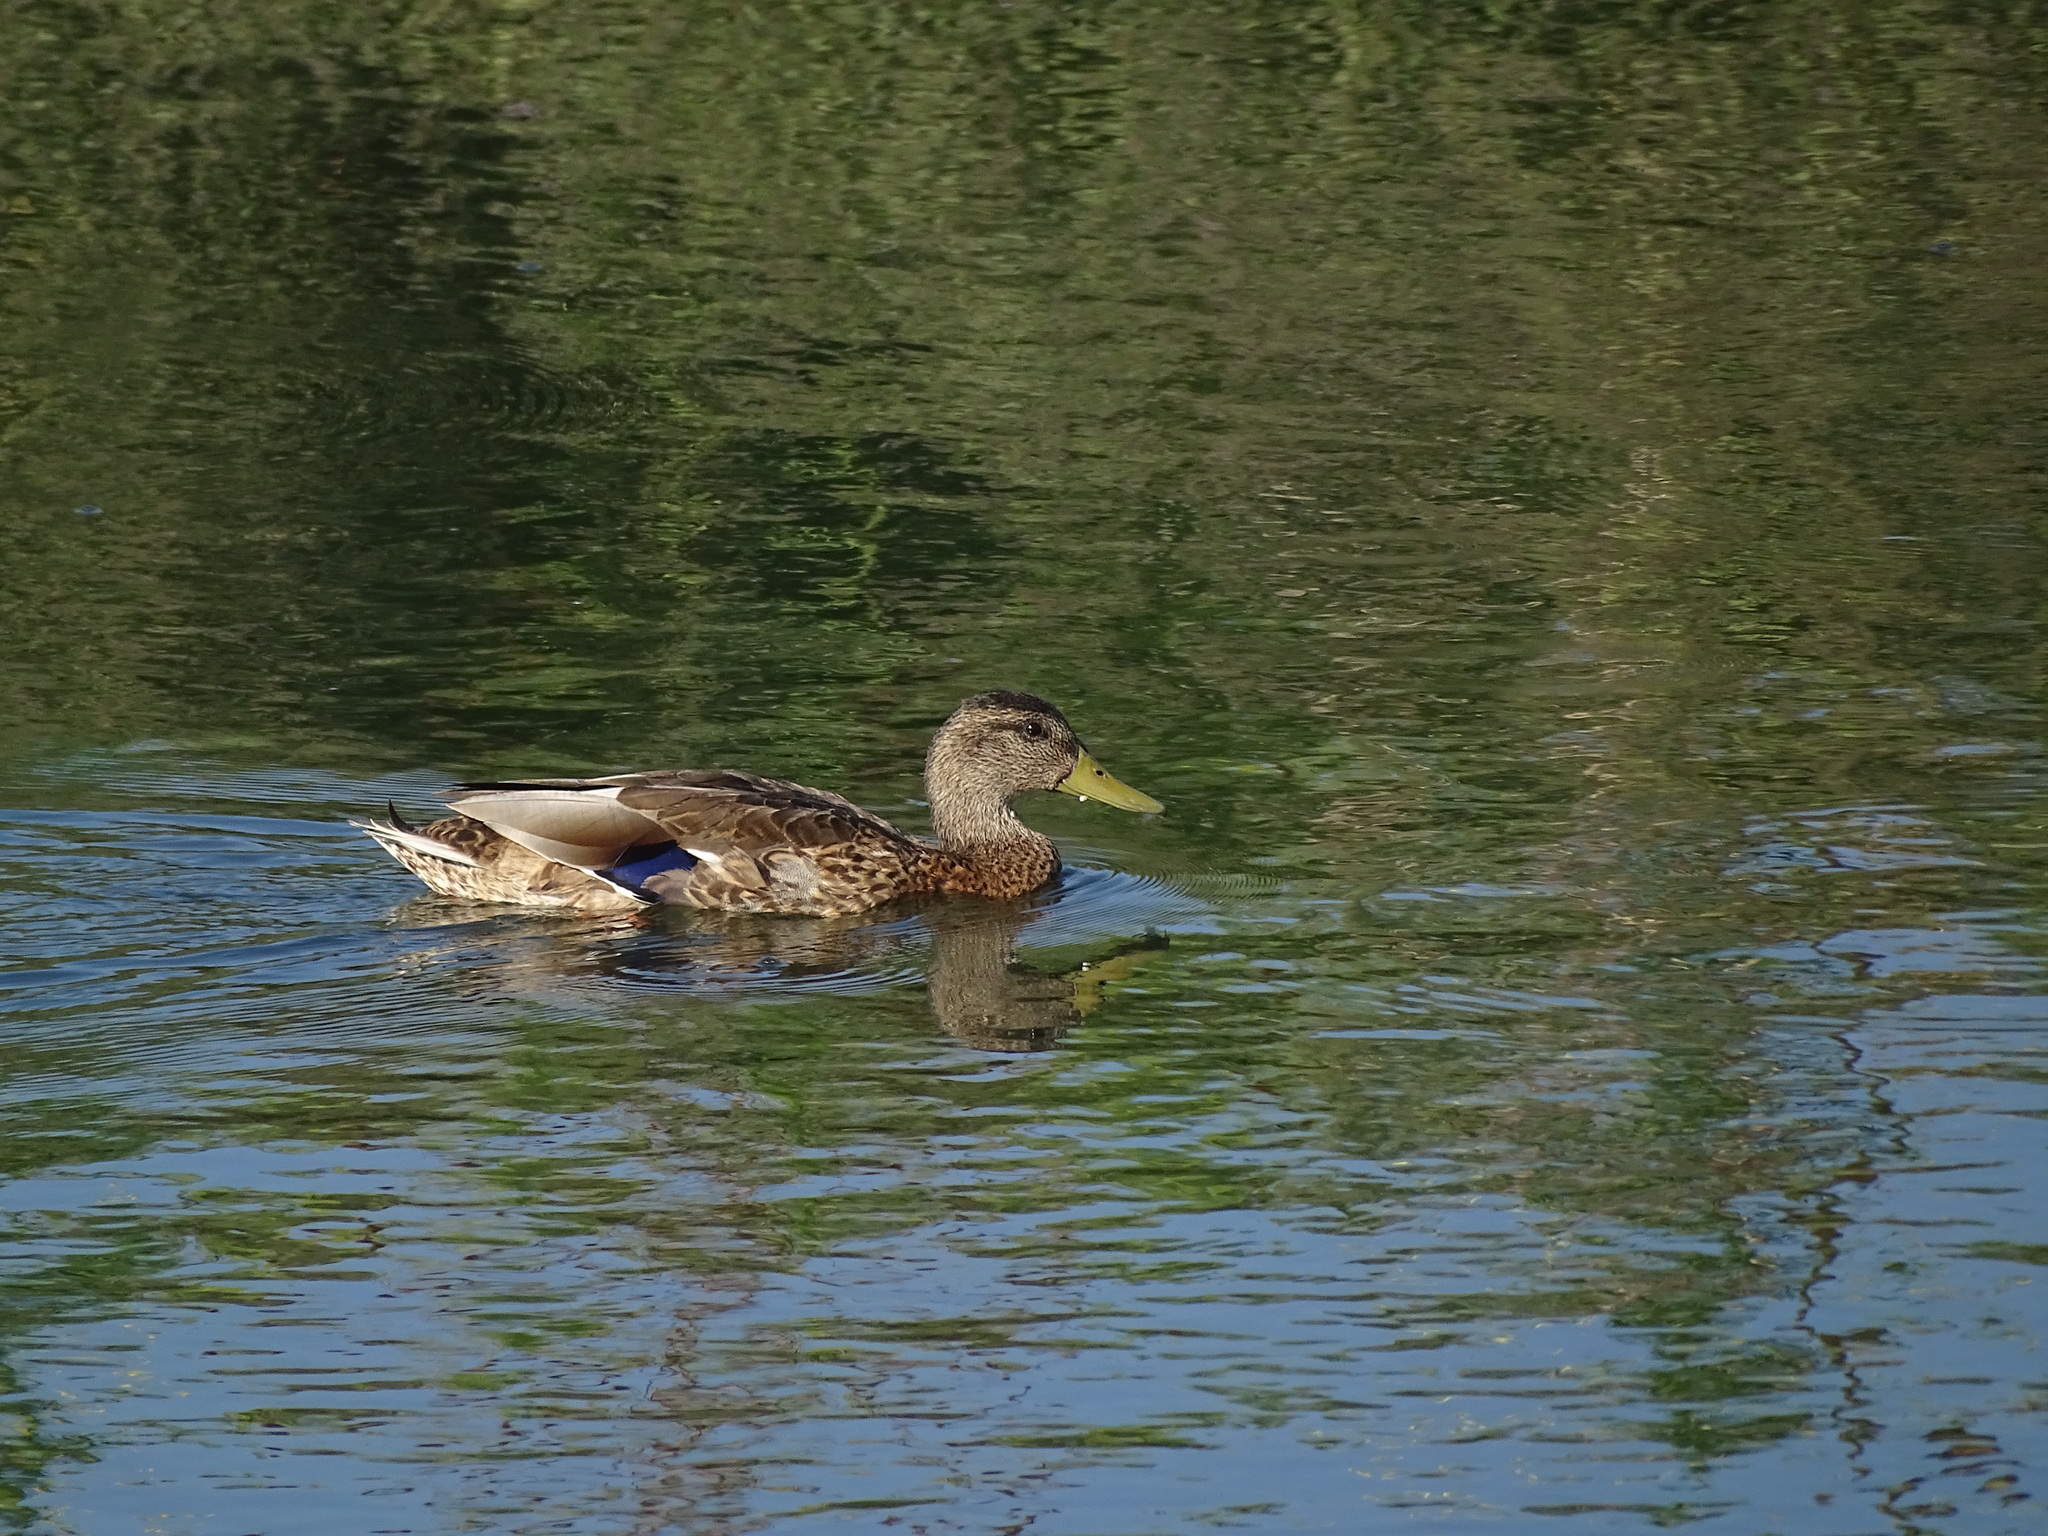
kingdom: Animalia
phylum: Chordata
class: Aves
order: Anseriformes
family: Anatidae
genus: Anas
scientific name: Anas platyrhynchos
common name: Mallard
